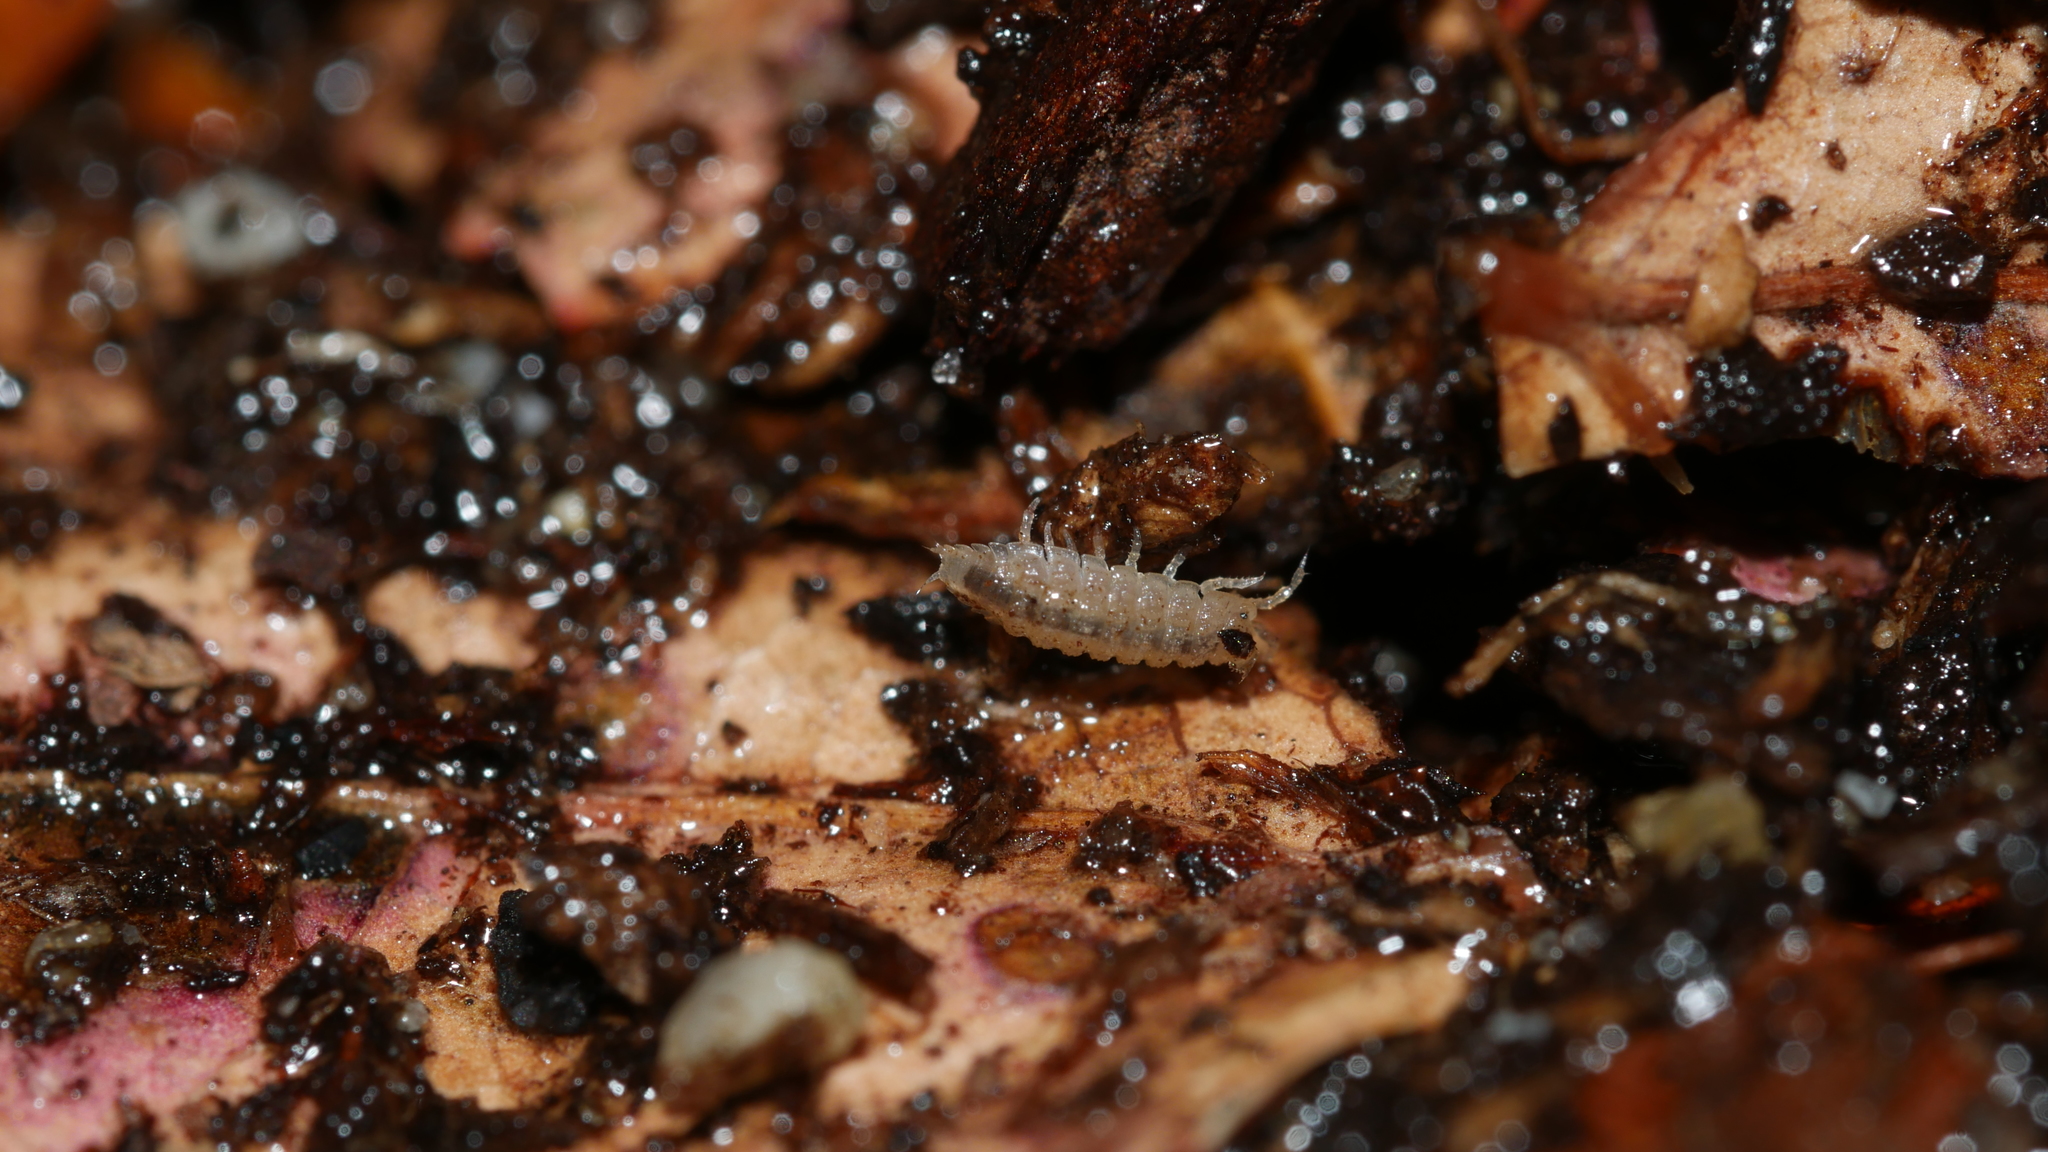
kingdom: Animalia
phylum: Arthropoda
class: Malacostraca
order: Isopoda
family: Trichoniscidae
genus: Haplophthalmus
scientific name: Haplophthalmus danicus
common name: Pillbug
